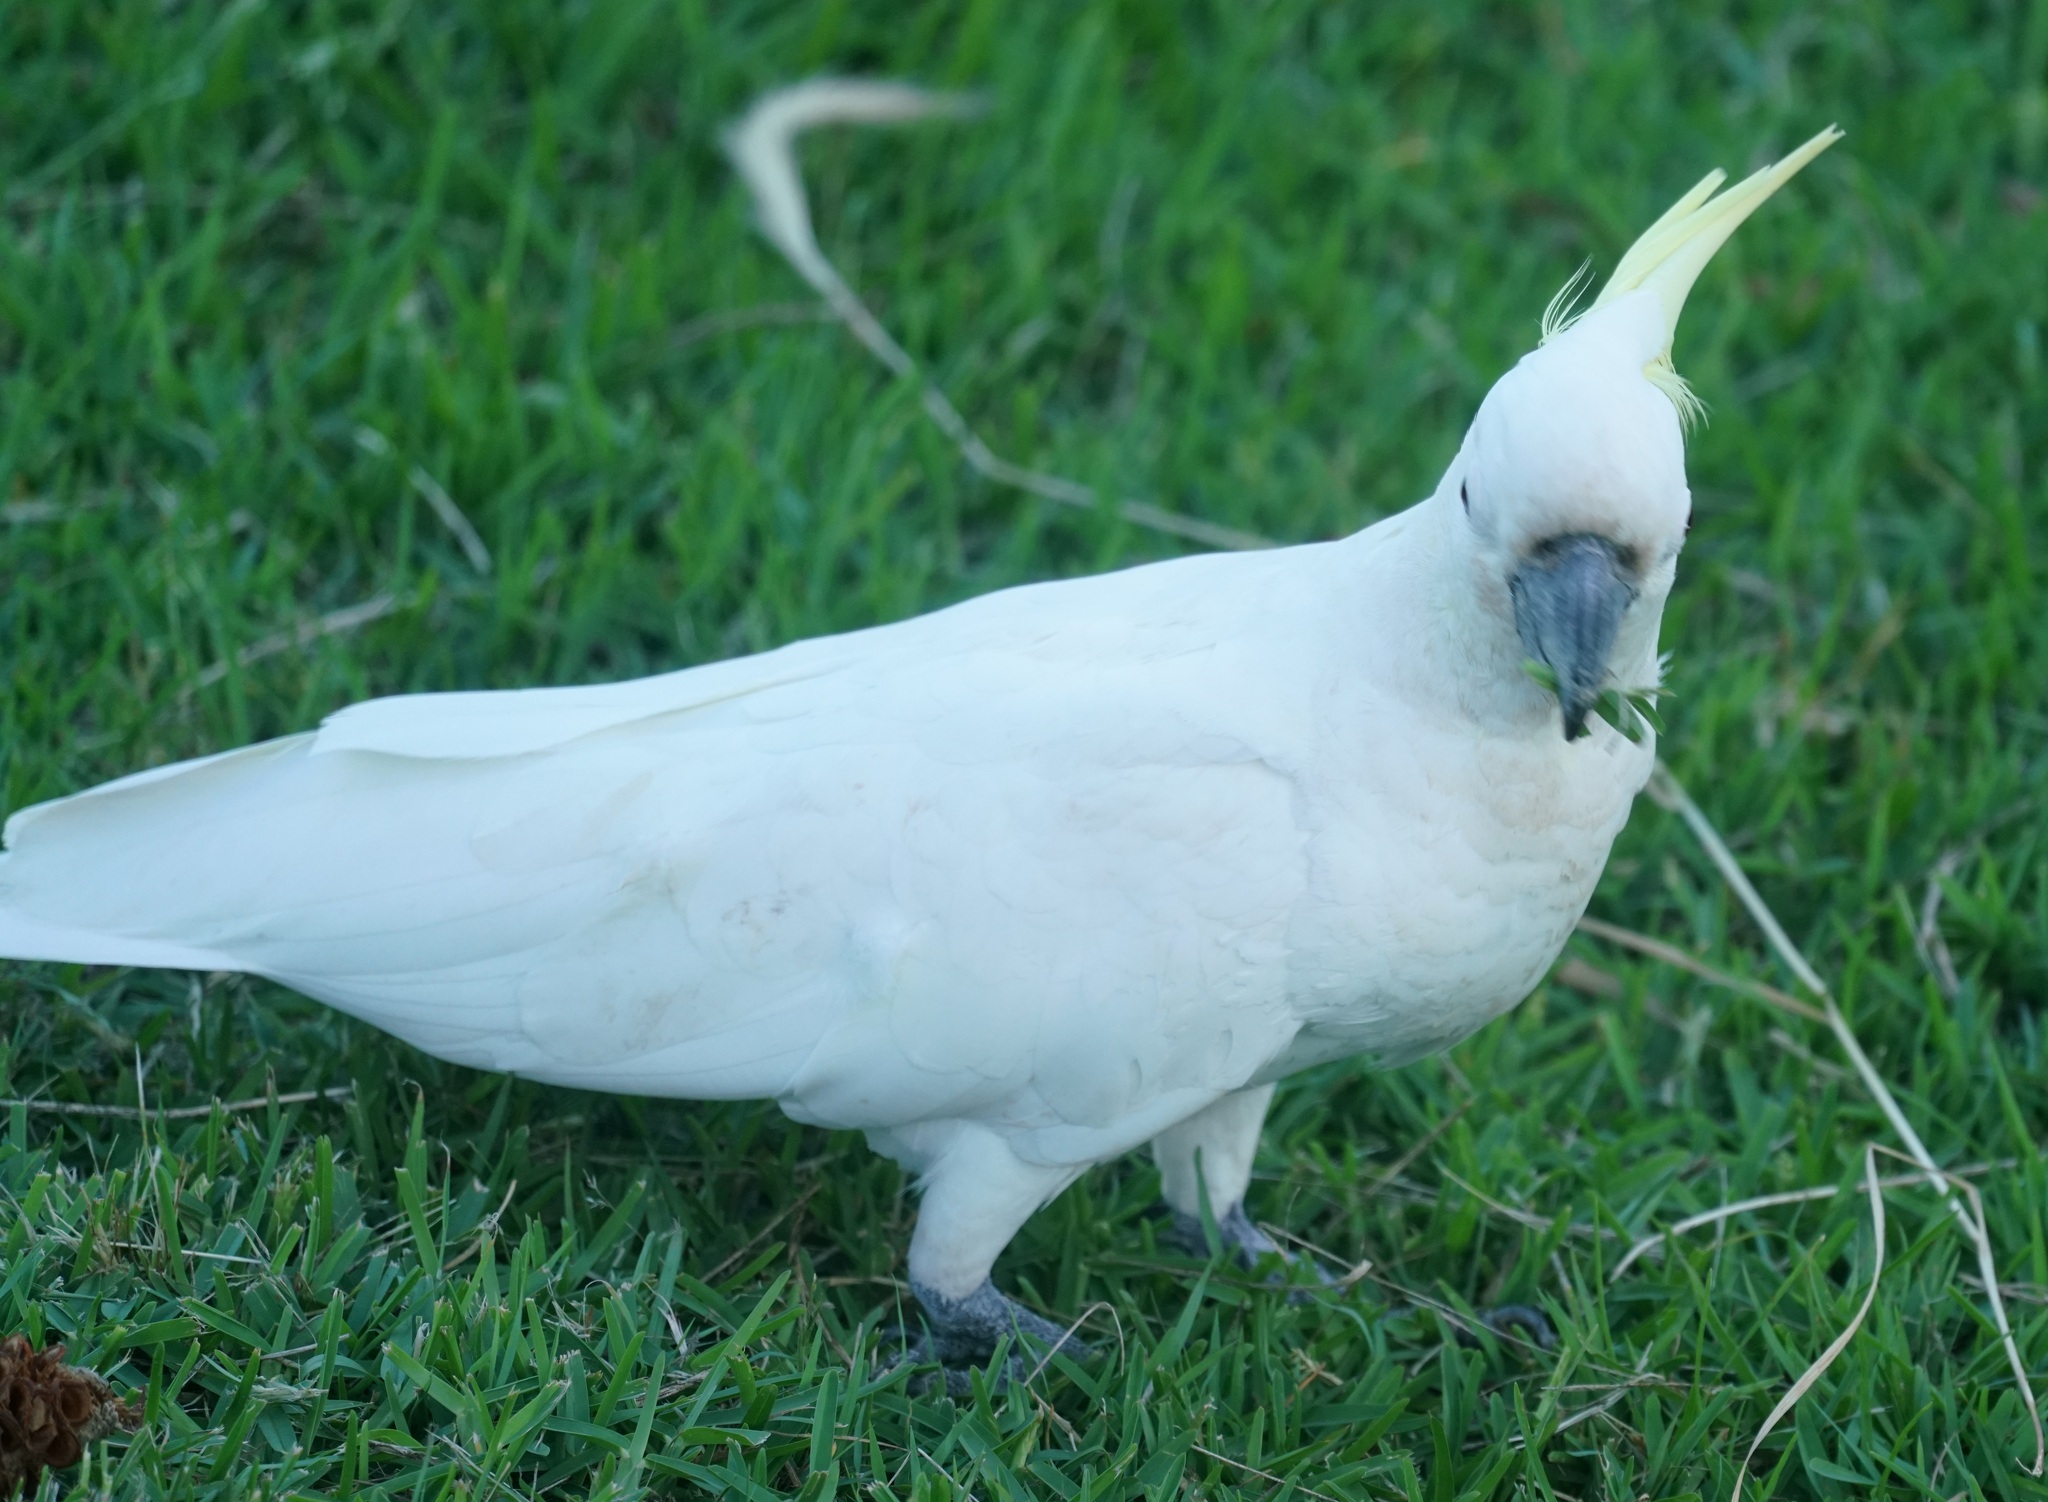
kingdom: Animalia
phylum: Chordata
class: Aves
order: Psittaciformes
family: Psittacidae
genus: Cacatua
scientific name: Cacatua galerita
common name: Sulphur-crested cockatoo
